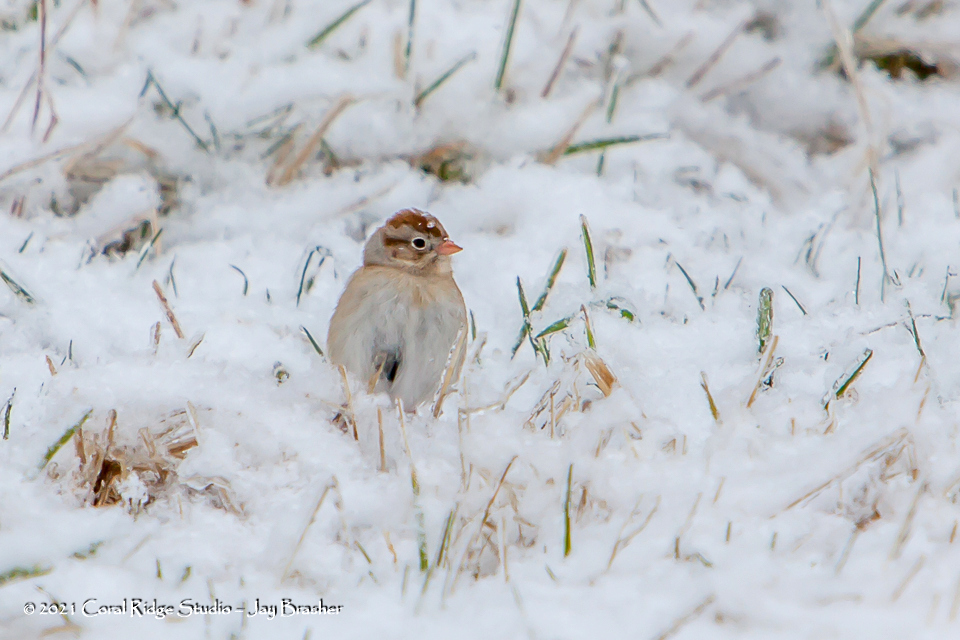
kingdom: Animalia
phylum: Chordata
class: Aves
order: Passeriformes
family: Passerellidae
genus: Spizella
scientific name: Spizella pusilla
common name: Field sparrow
